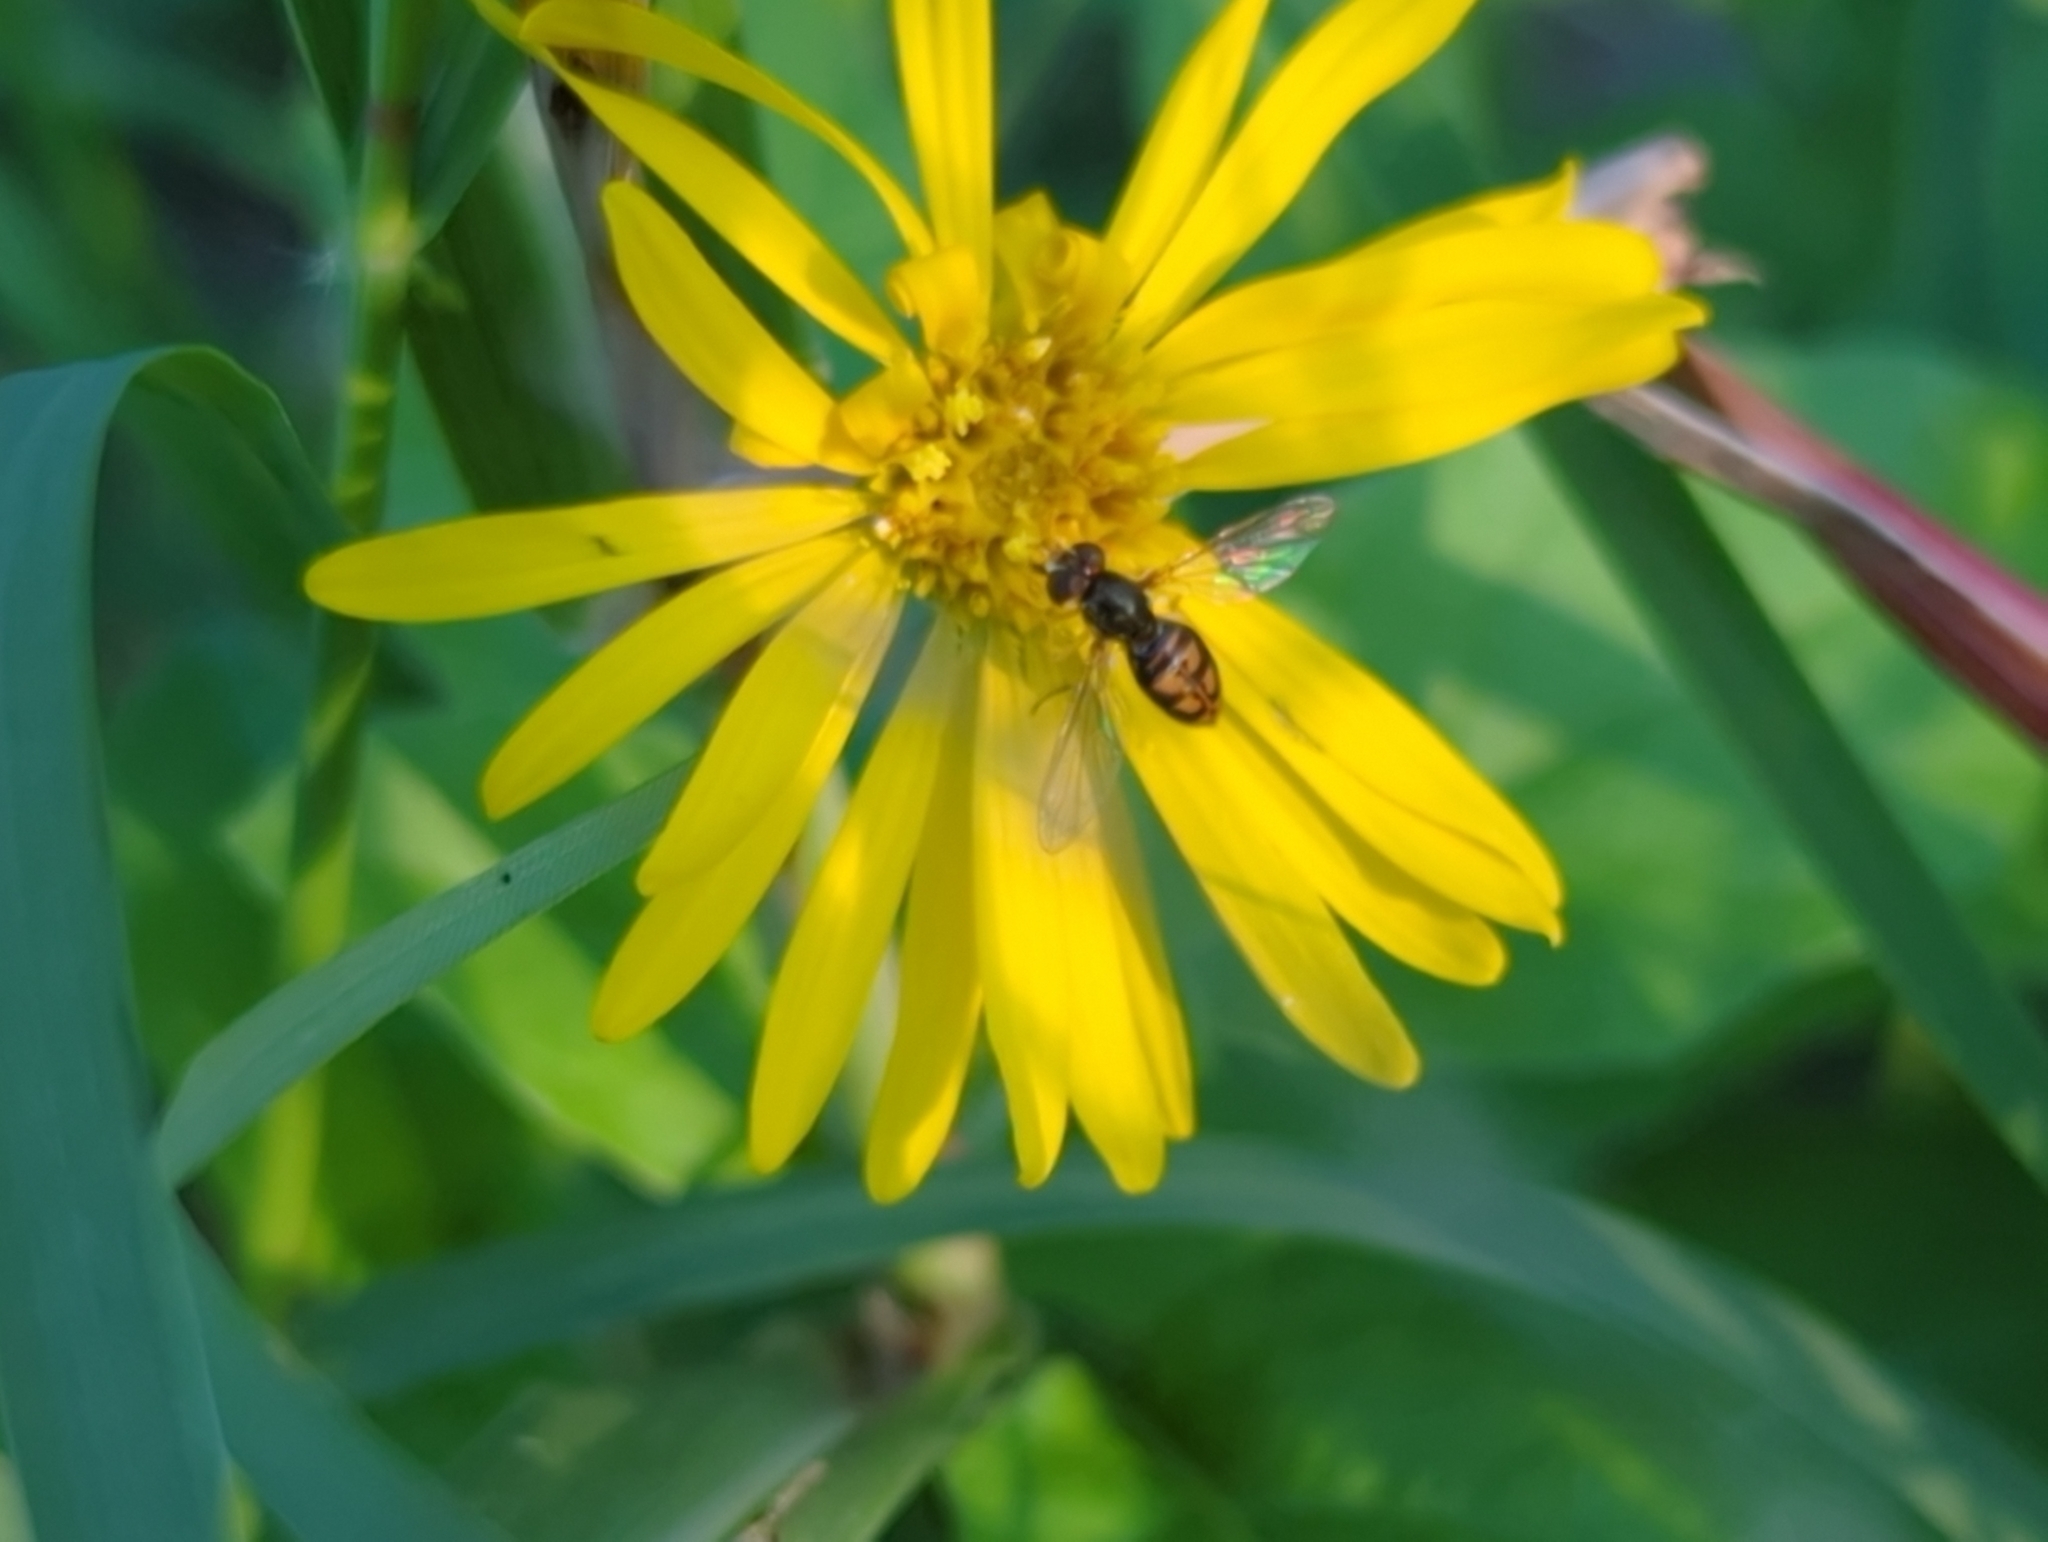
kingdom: Animalia
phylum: Arthropoda
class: Insecta
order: Diptera
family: Syrphidae
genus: Toxomerus
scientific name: Toxomerus marginatus
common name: Syrphid fly
